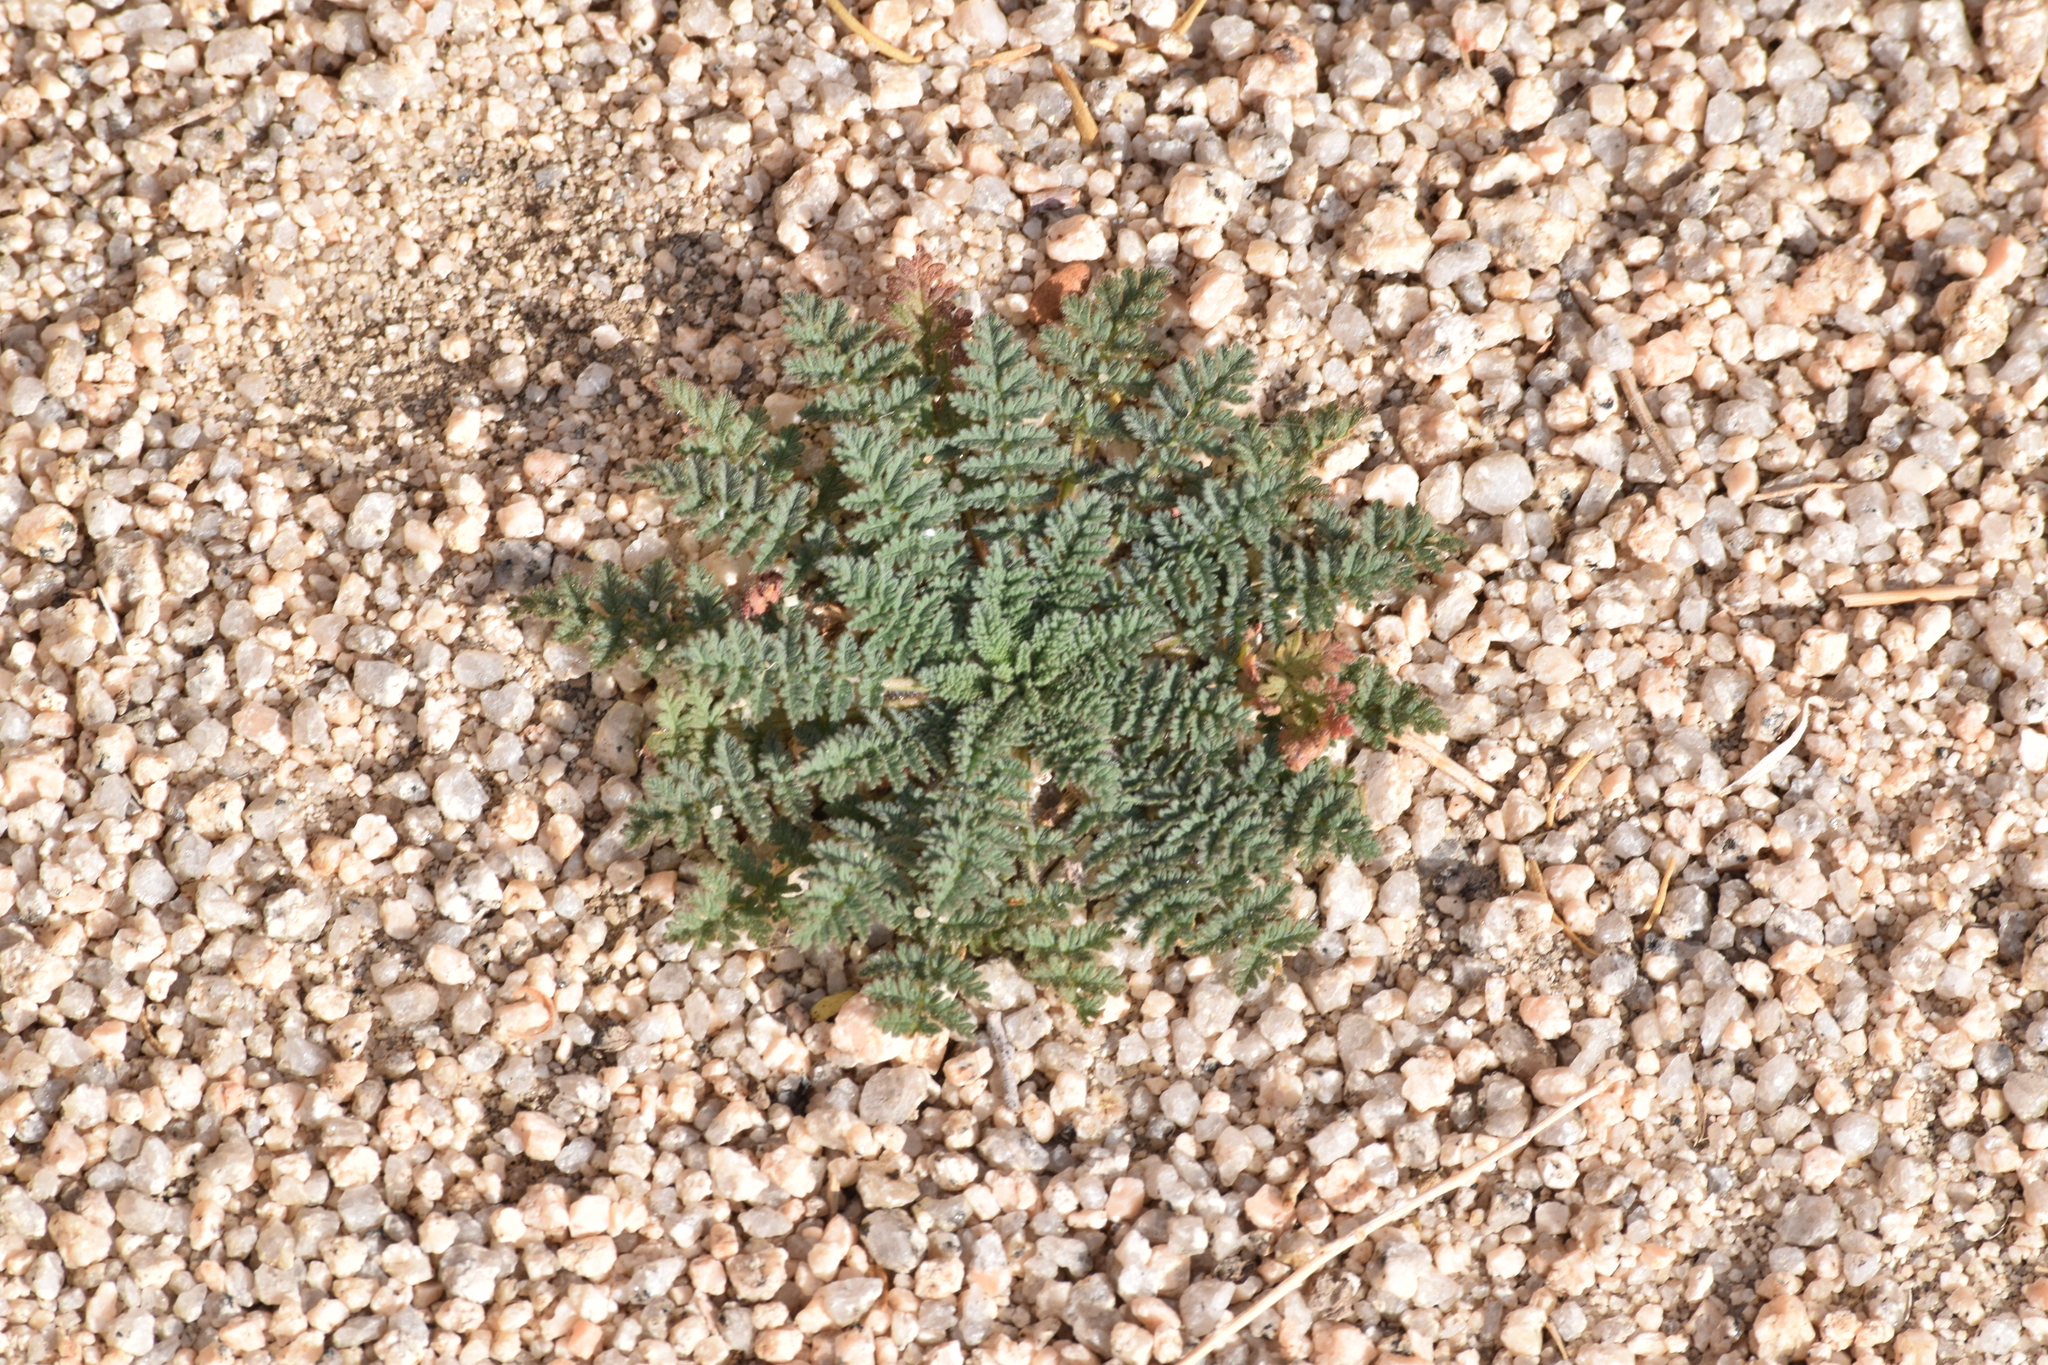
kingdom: Plantae
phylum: Tracheophyta
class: Magnoliopsida
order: Geraniales
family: Geraniaceae
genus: Erodium
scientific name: Erodium cicutarium
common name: Common stork's-bill
